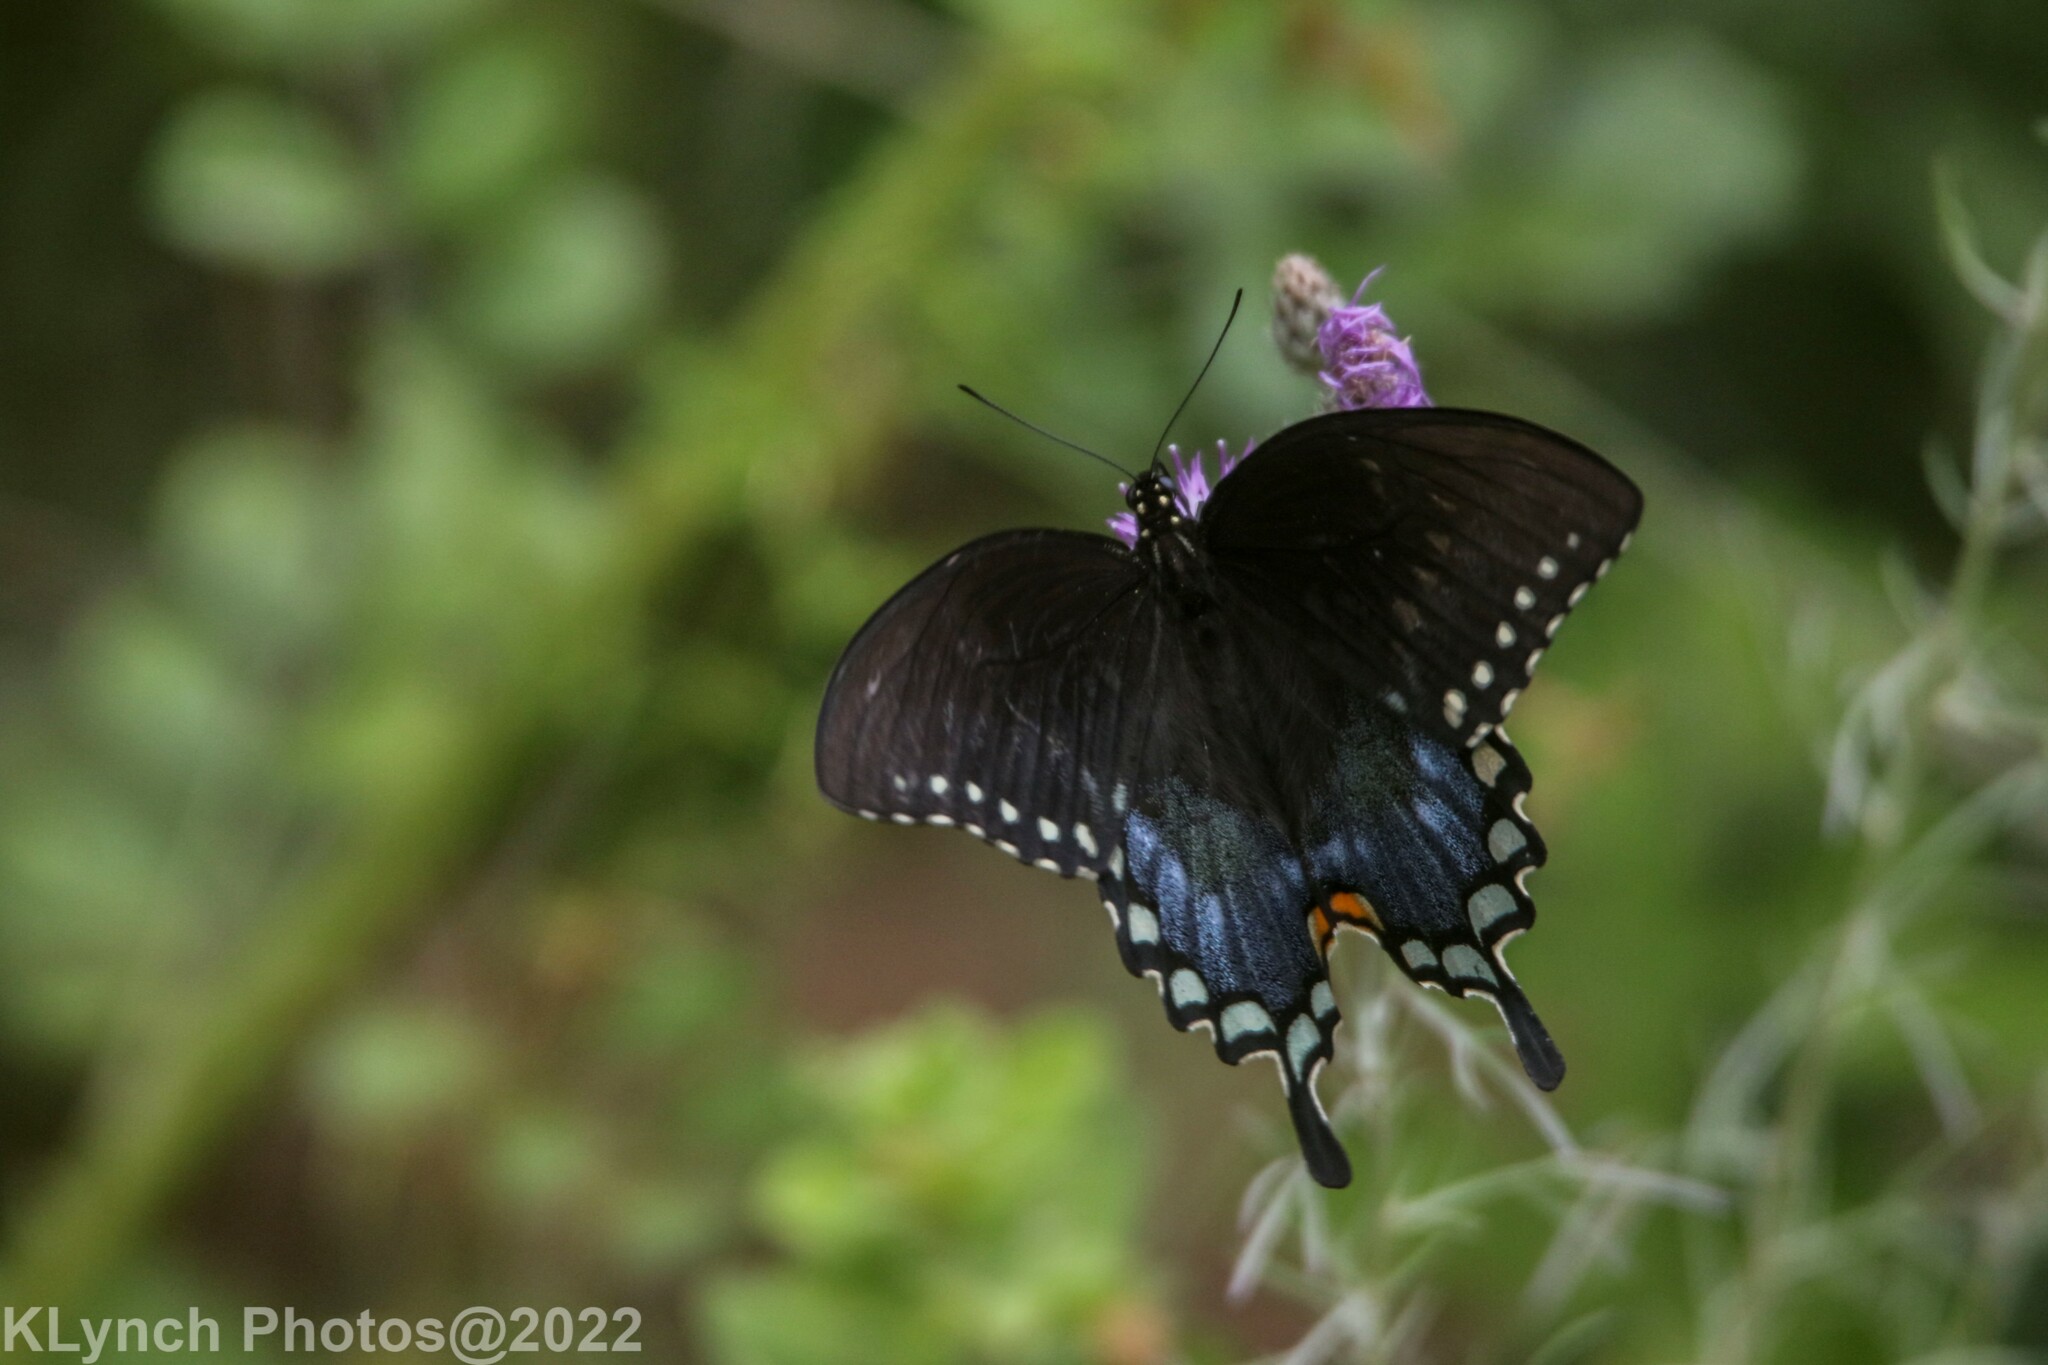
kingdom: Animalia
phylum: Arthropoda
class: Insecta
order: Lepidoptera
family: Papilionidae
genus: Papilio
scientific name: Papilio troilus
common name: Spicebush swallowtail
